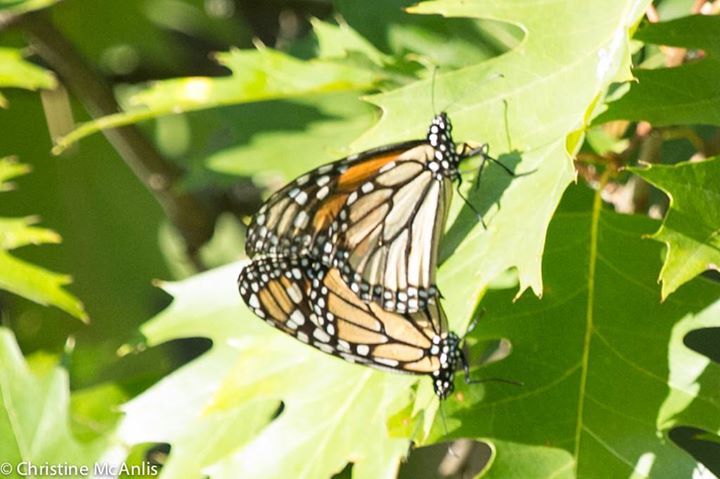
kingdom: Animalia
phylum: Arthropoda
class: Insecta
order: Lepidoptera
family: Nymphalidae
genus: Danaus
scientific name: Danaus plexippus
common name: Monarch
